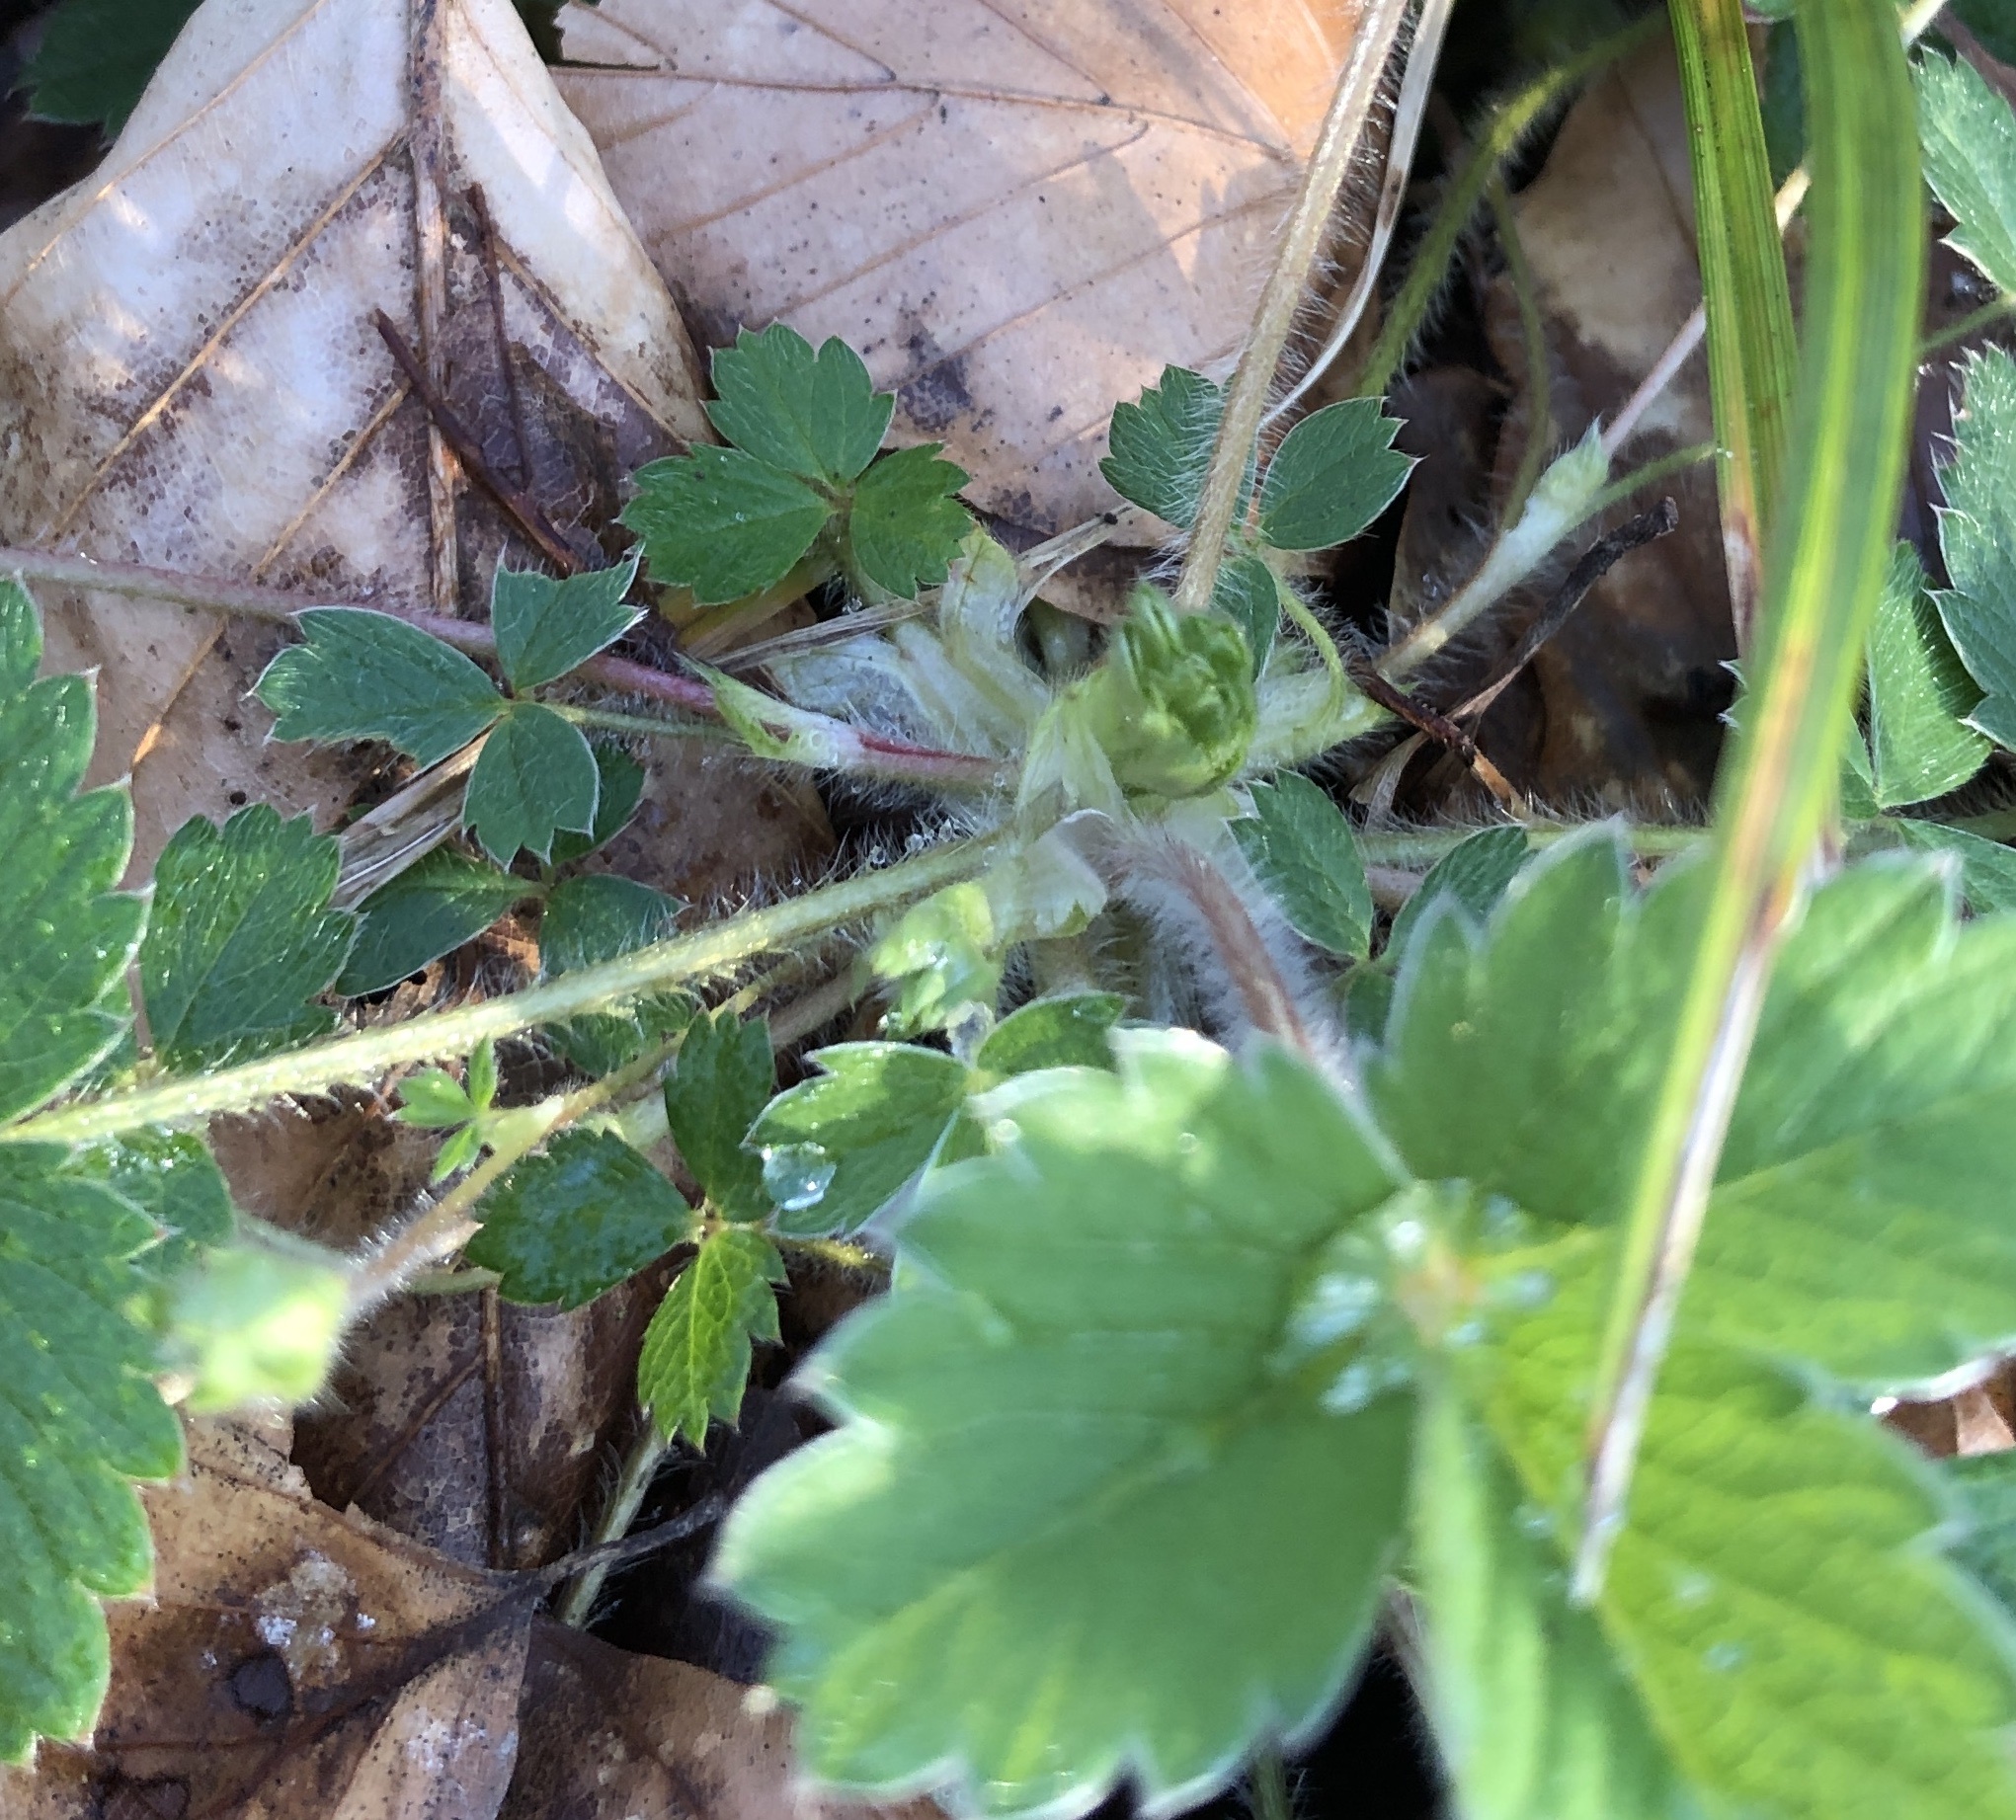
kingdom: Plantae
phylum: Tracheophyta
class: Magnoliopsida
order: Rosales
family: Rosaceae
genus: Potentilla
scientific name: Potentilla sterilis
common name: Barren strawberry
